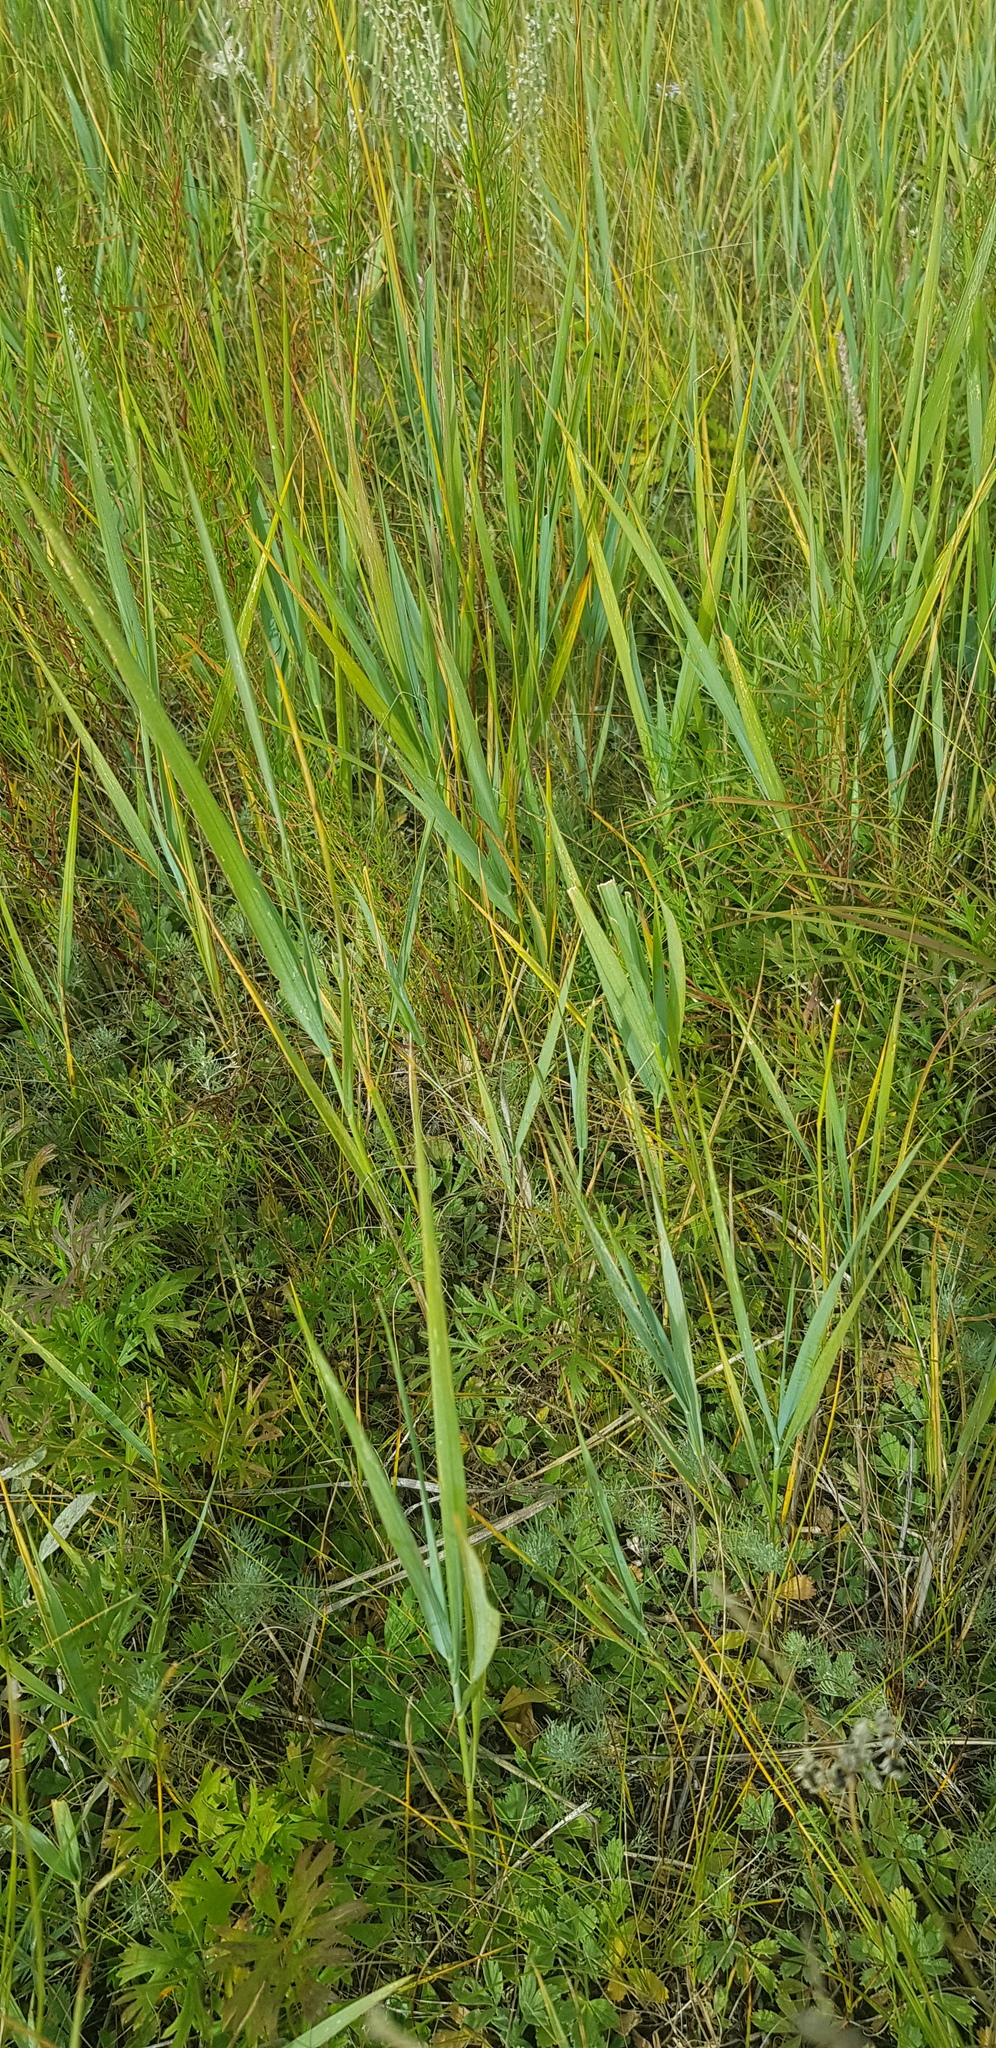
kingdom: Plantae
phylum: Tracheophyta
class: Liliopsida
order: Poales
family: Poaceae
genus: Leymus
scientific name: Leymus racemosus
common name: Mammoth wildrye
